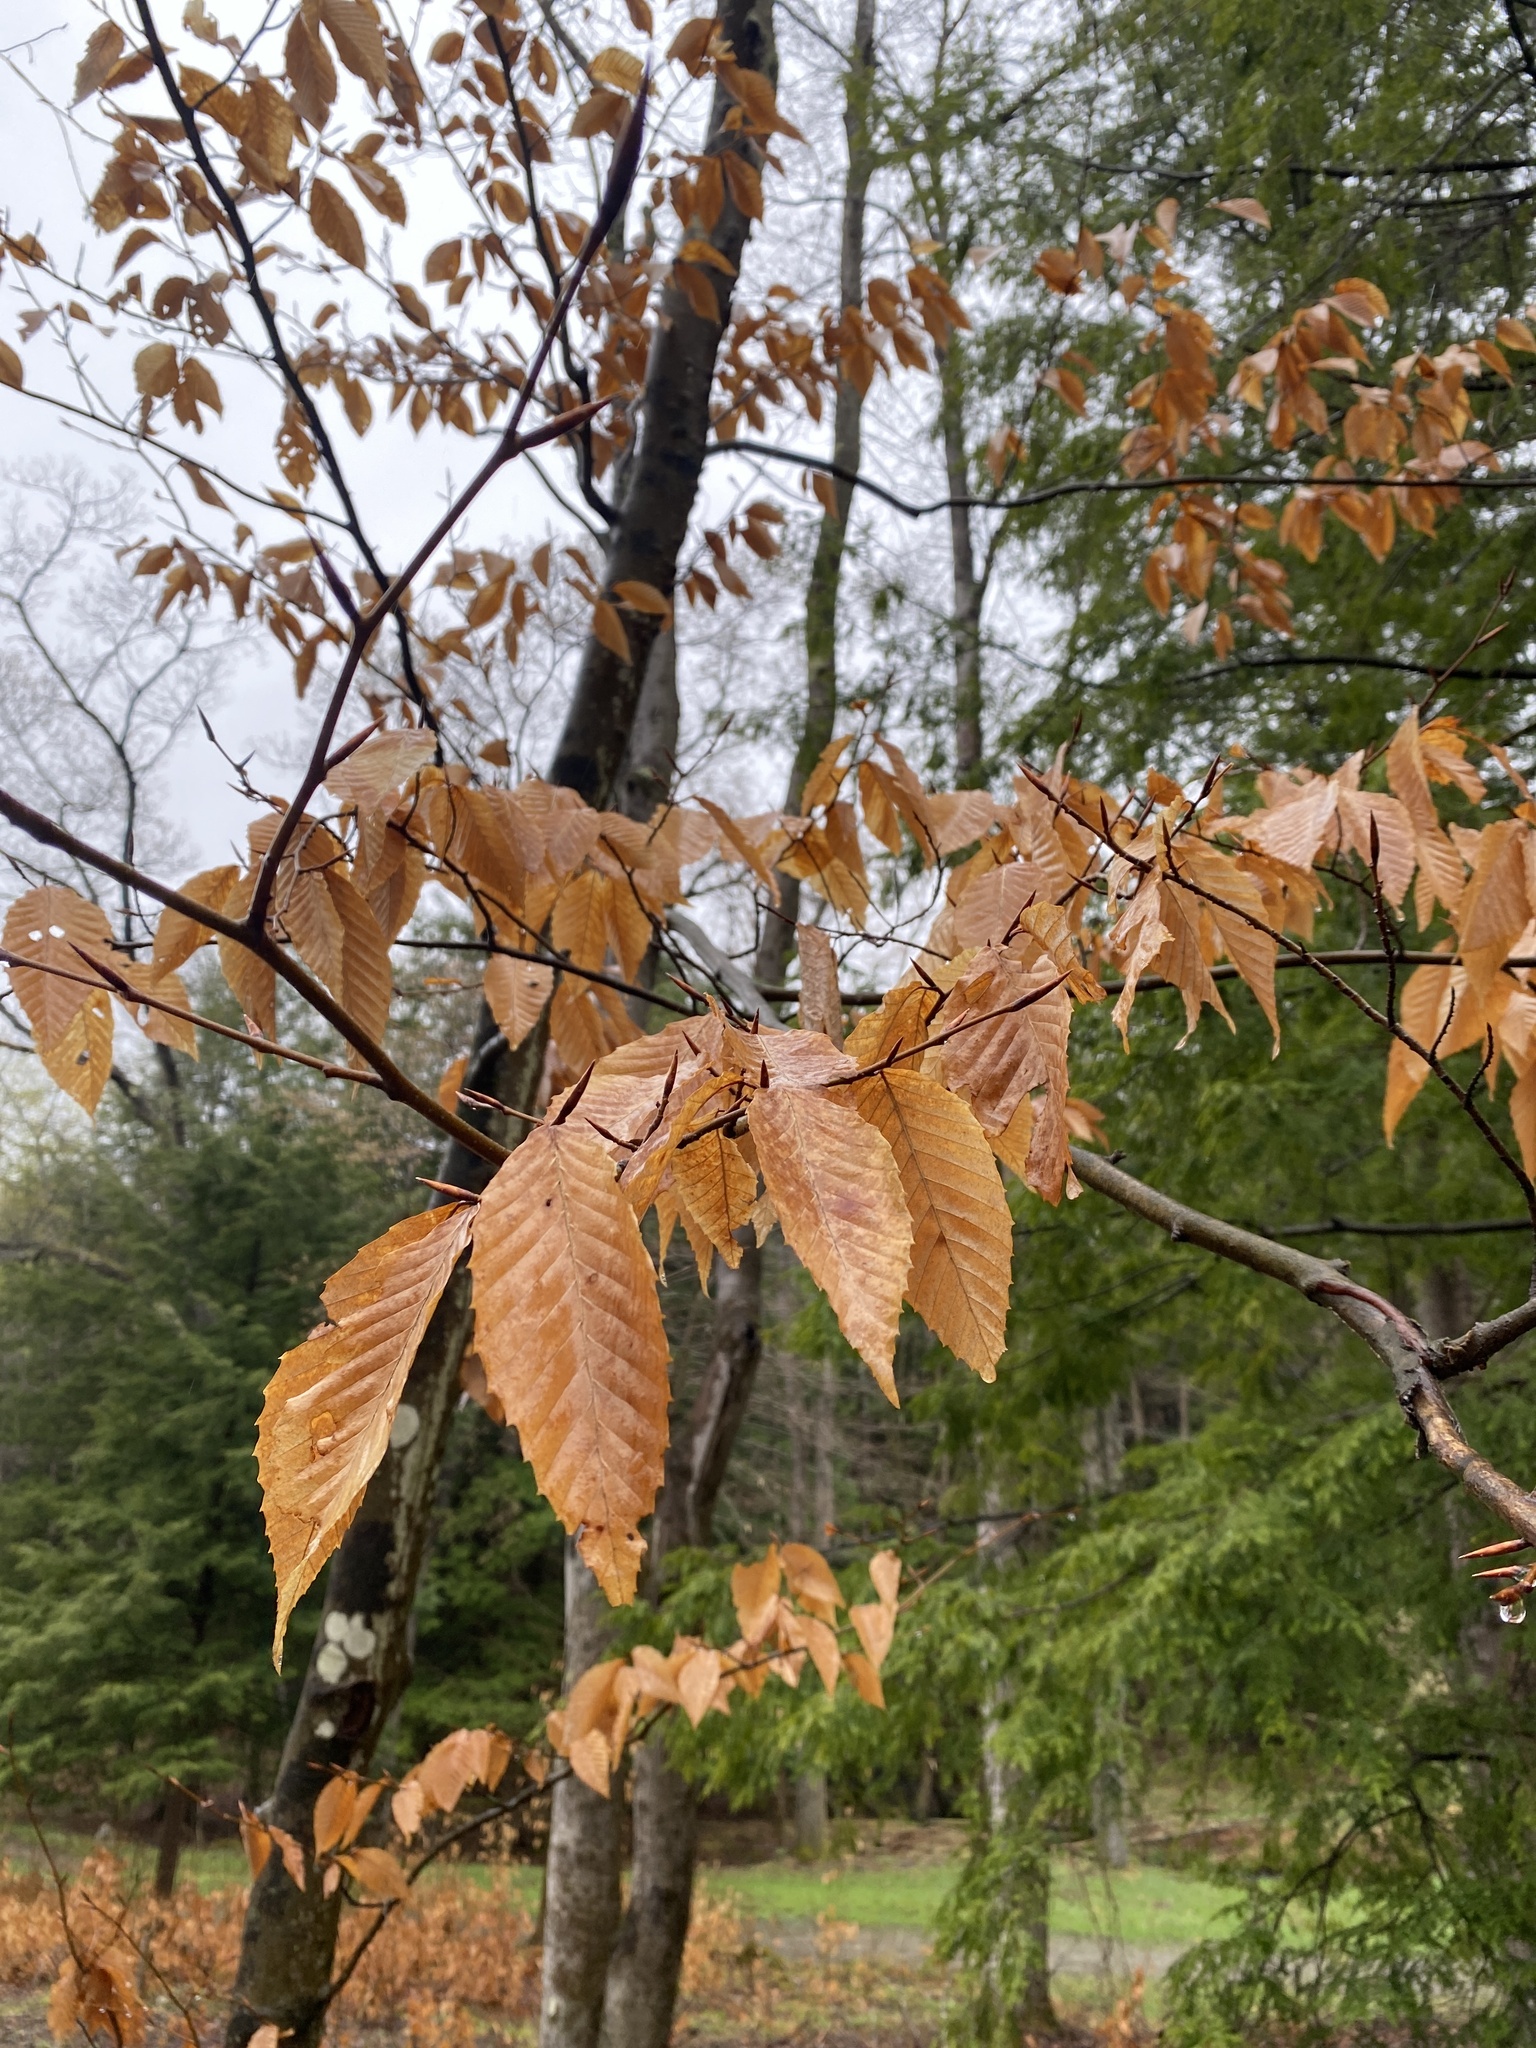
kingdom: Plantae
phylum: Tracheophyta
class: Magnoliopsida
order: Fagales
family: Fagaceae
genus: Fagus
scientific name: Fagus grandifolia
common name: American beech
